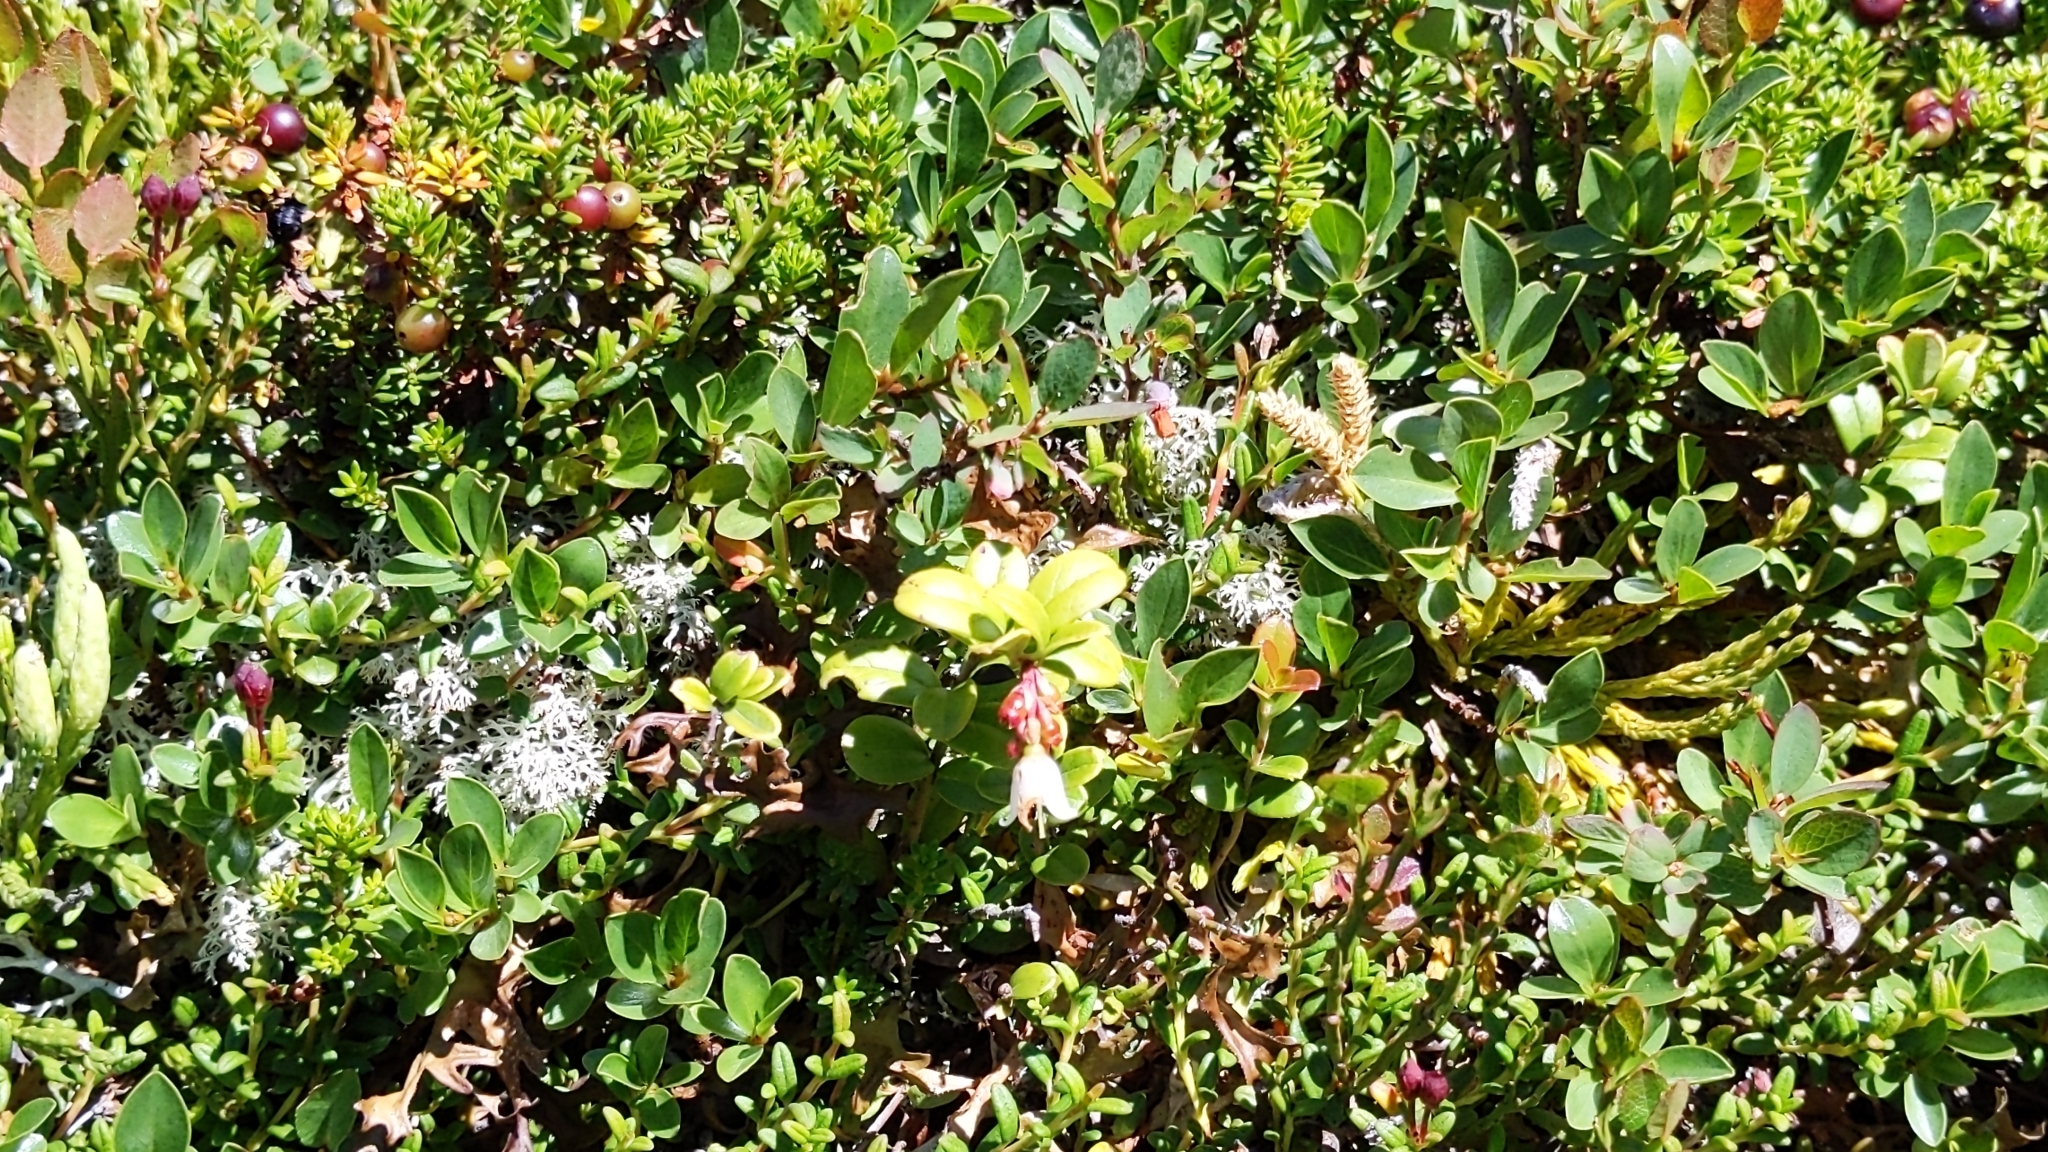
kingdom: Plantae
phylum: Tracheophyta
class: Magnoliopsida
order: Ericales
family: Ericaceae
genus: Vaccinium
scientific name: Vaccinium vitis-idaea
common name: Cowberry
